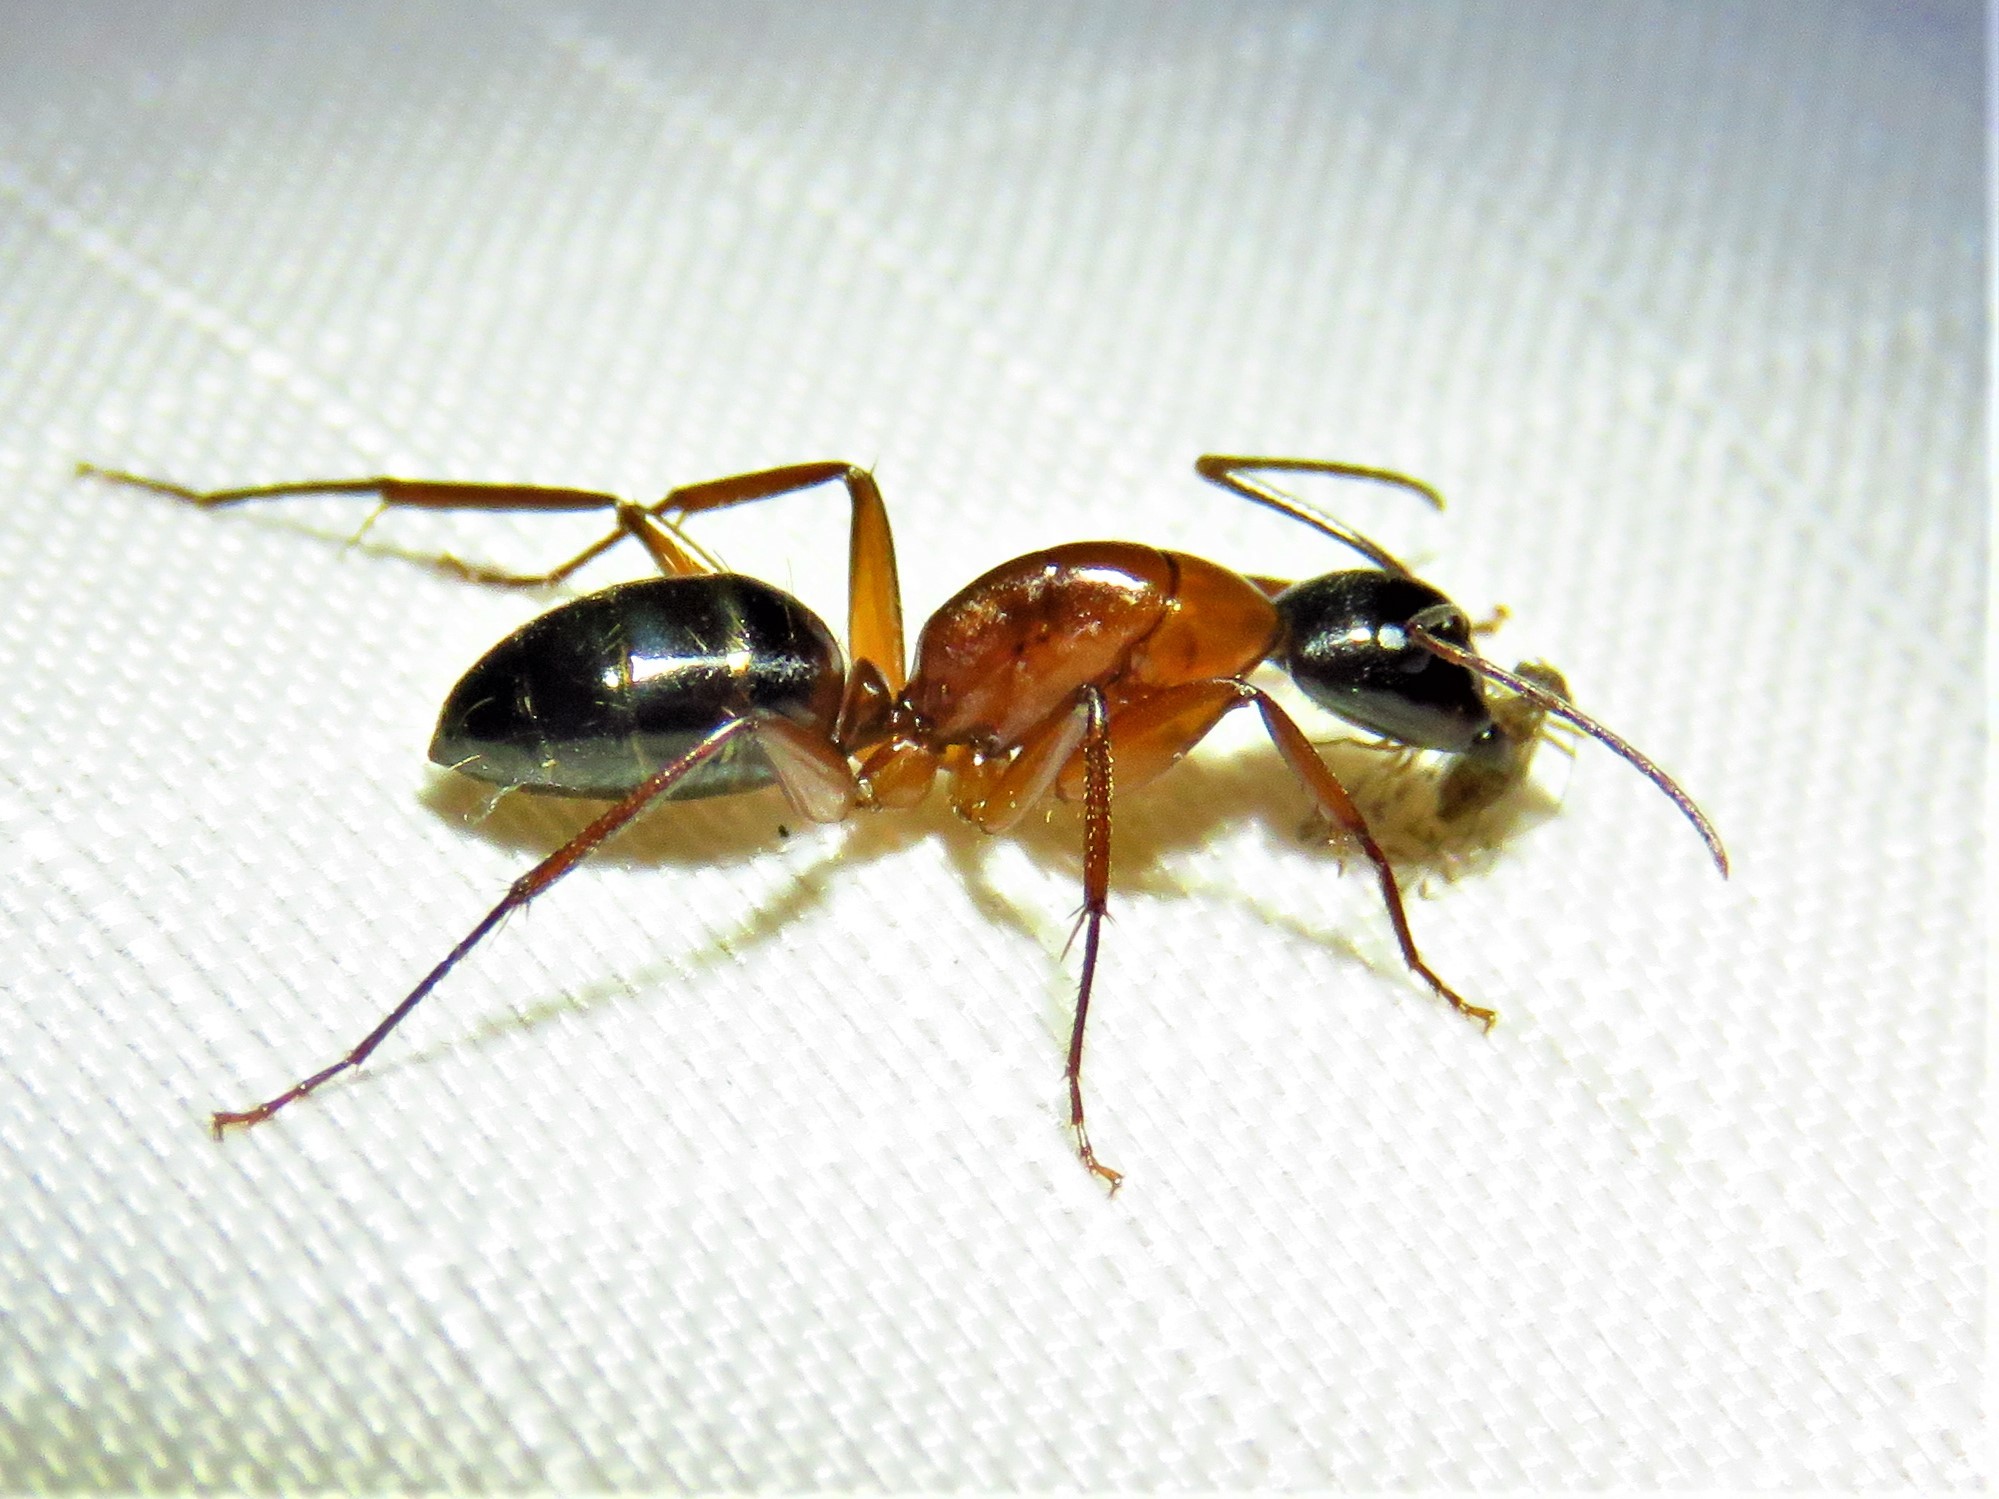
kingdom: Animalia
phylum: Arthropoda
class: Insecta
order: Hymenoptera
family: Formicidae
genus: Camponotus
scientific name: Camponotus texanus
